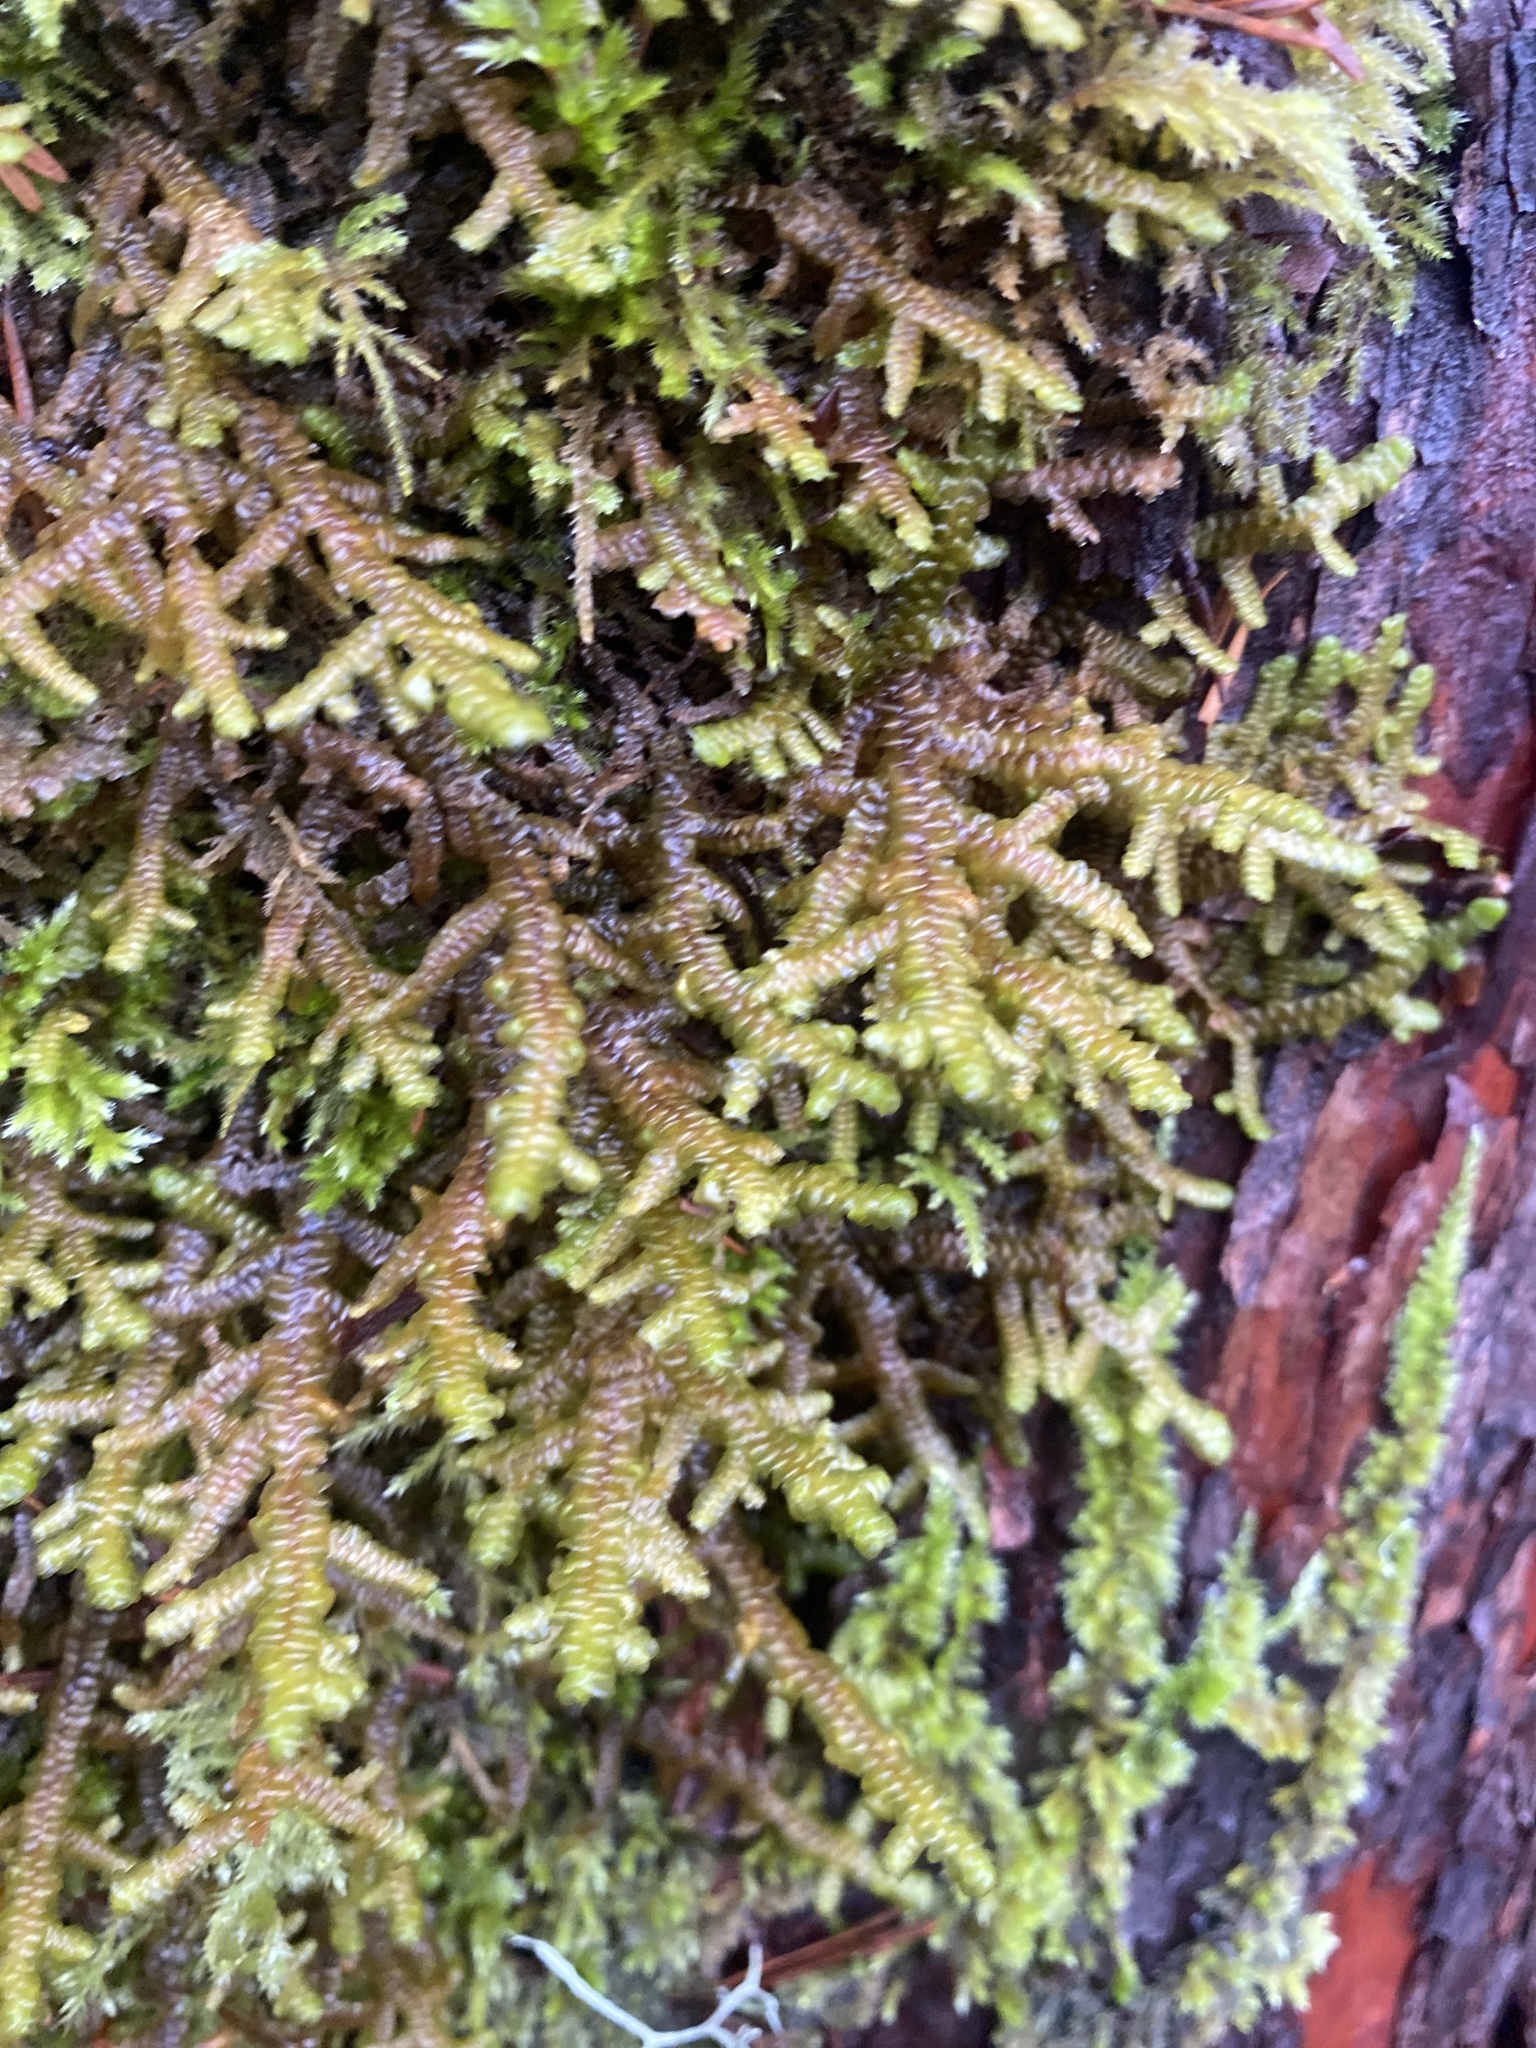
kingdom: Plantae
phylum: Marchantiophyta
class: Jungermanniopsida
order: Porellales
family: Porellaceae
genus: Porella
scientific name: Porella navicularis
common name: Tree ruffle liverwort
